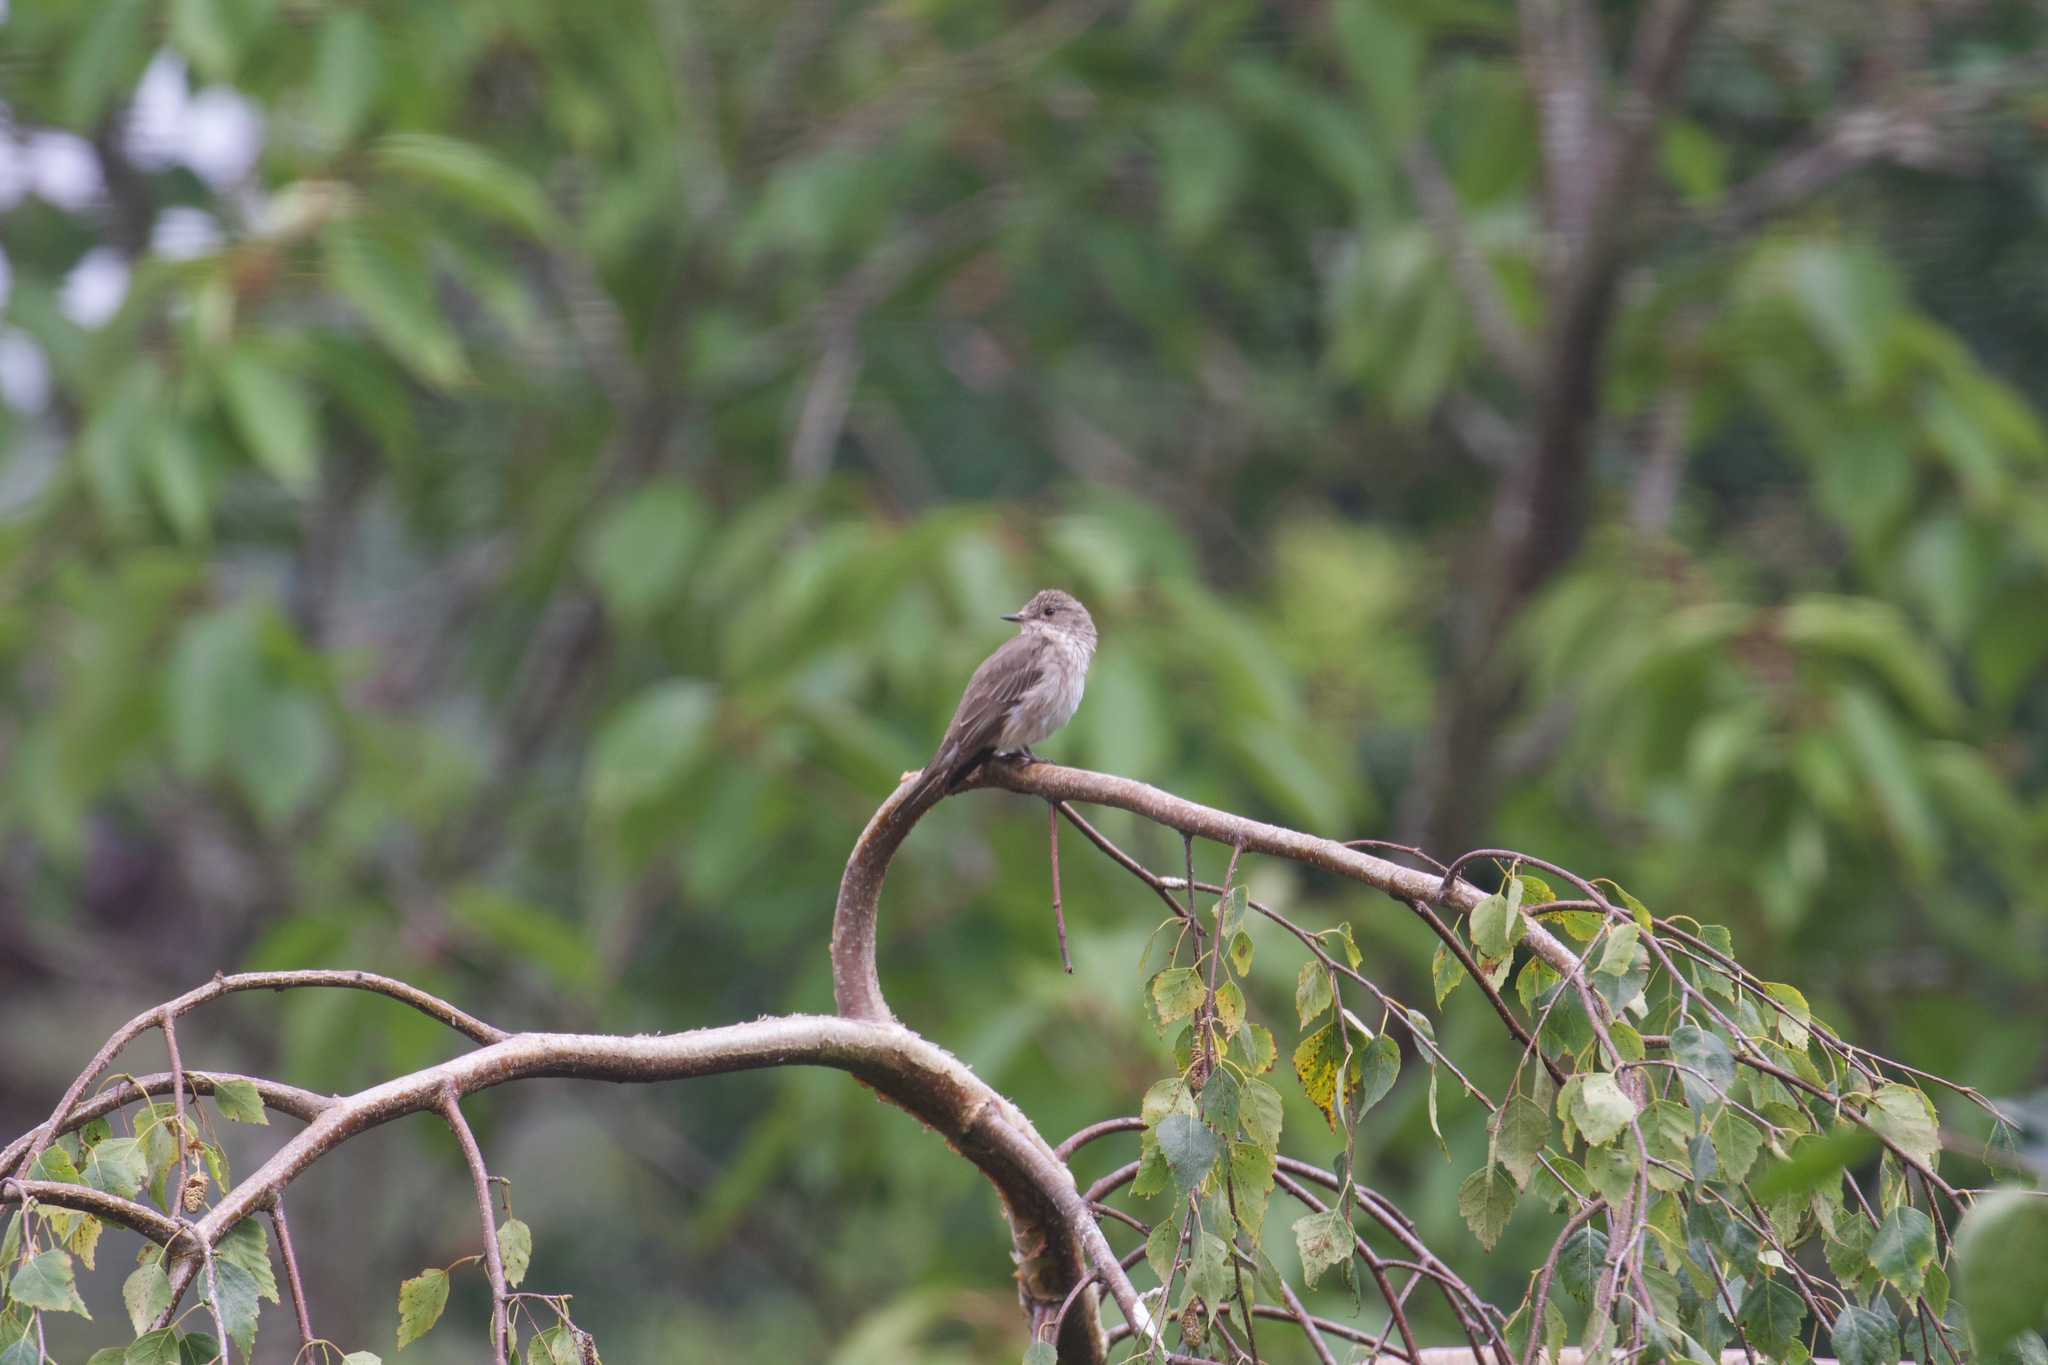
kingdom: Animalia
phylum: Chordata
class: Aves
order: Passeriformes
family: Muscicapidae
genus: Muscicapa
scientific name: Muscicapa striata
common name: Spotted flycatcher
